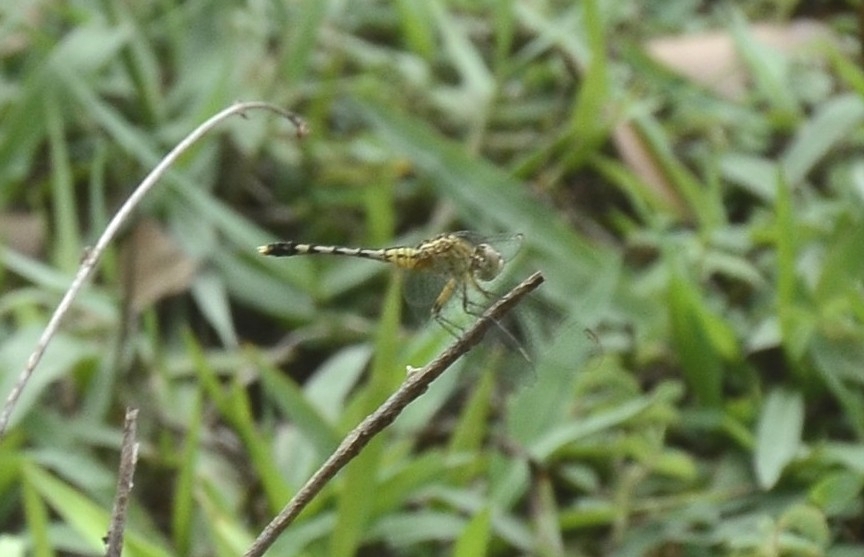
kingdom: Animalia
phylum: Arthropoda
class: Insecta
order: Odonata
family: Libellulidae
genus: Diplacodes
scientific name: Diplacodes trivialis
